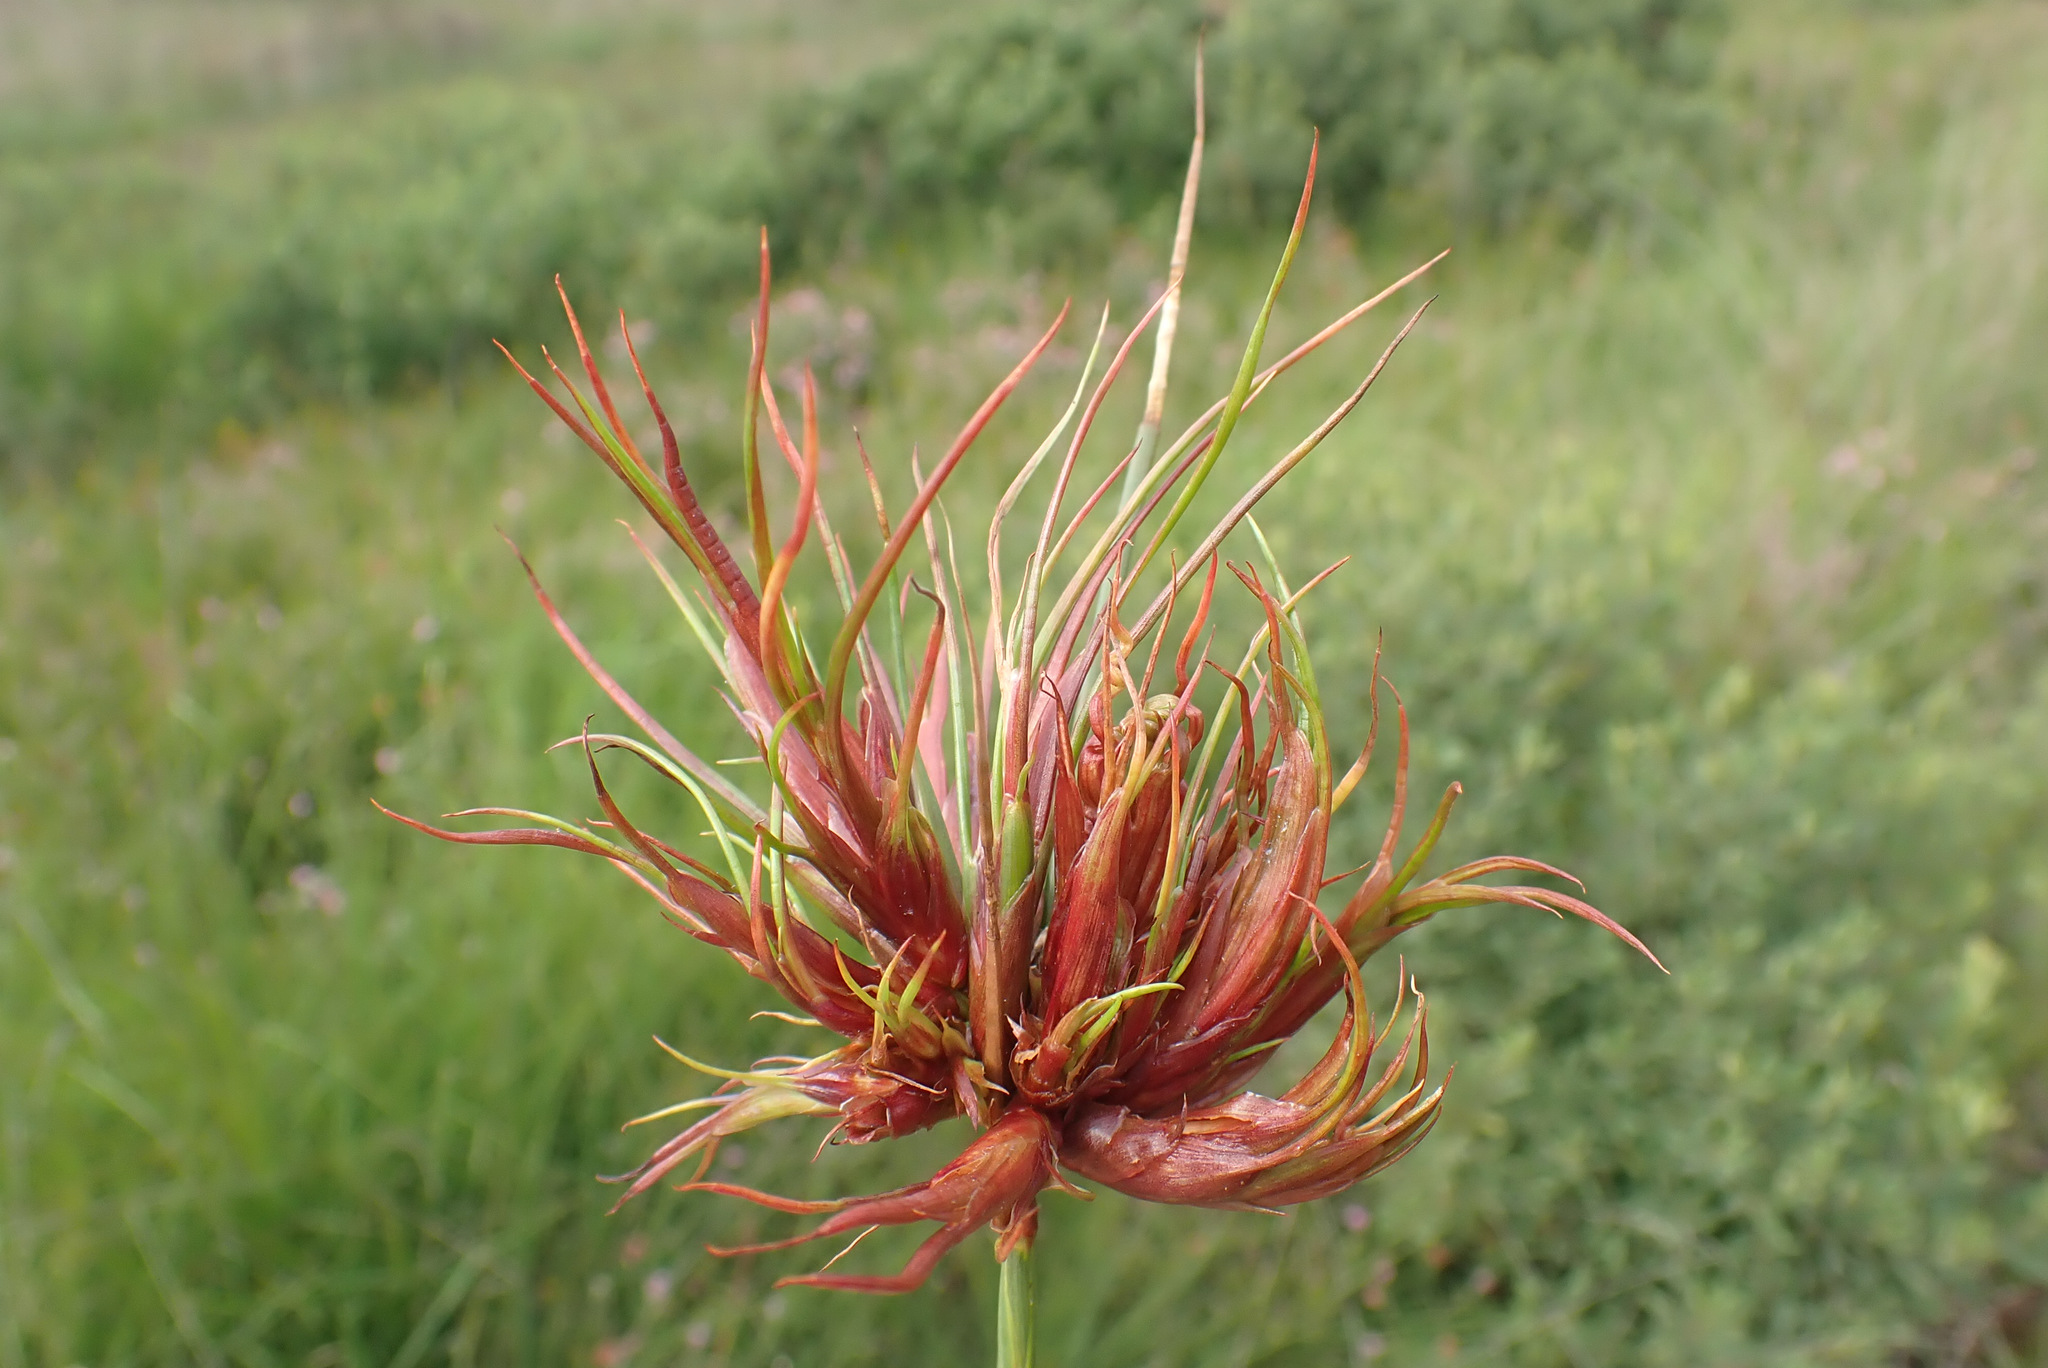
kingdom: Animalia
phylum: Arthropoda
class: Insecta
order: Hemiptera
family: Liviidae
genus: Livia
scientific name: Livia junci
